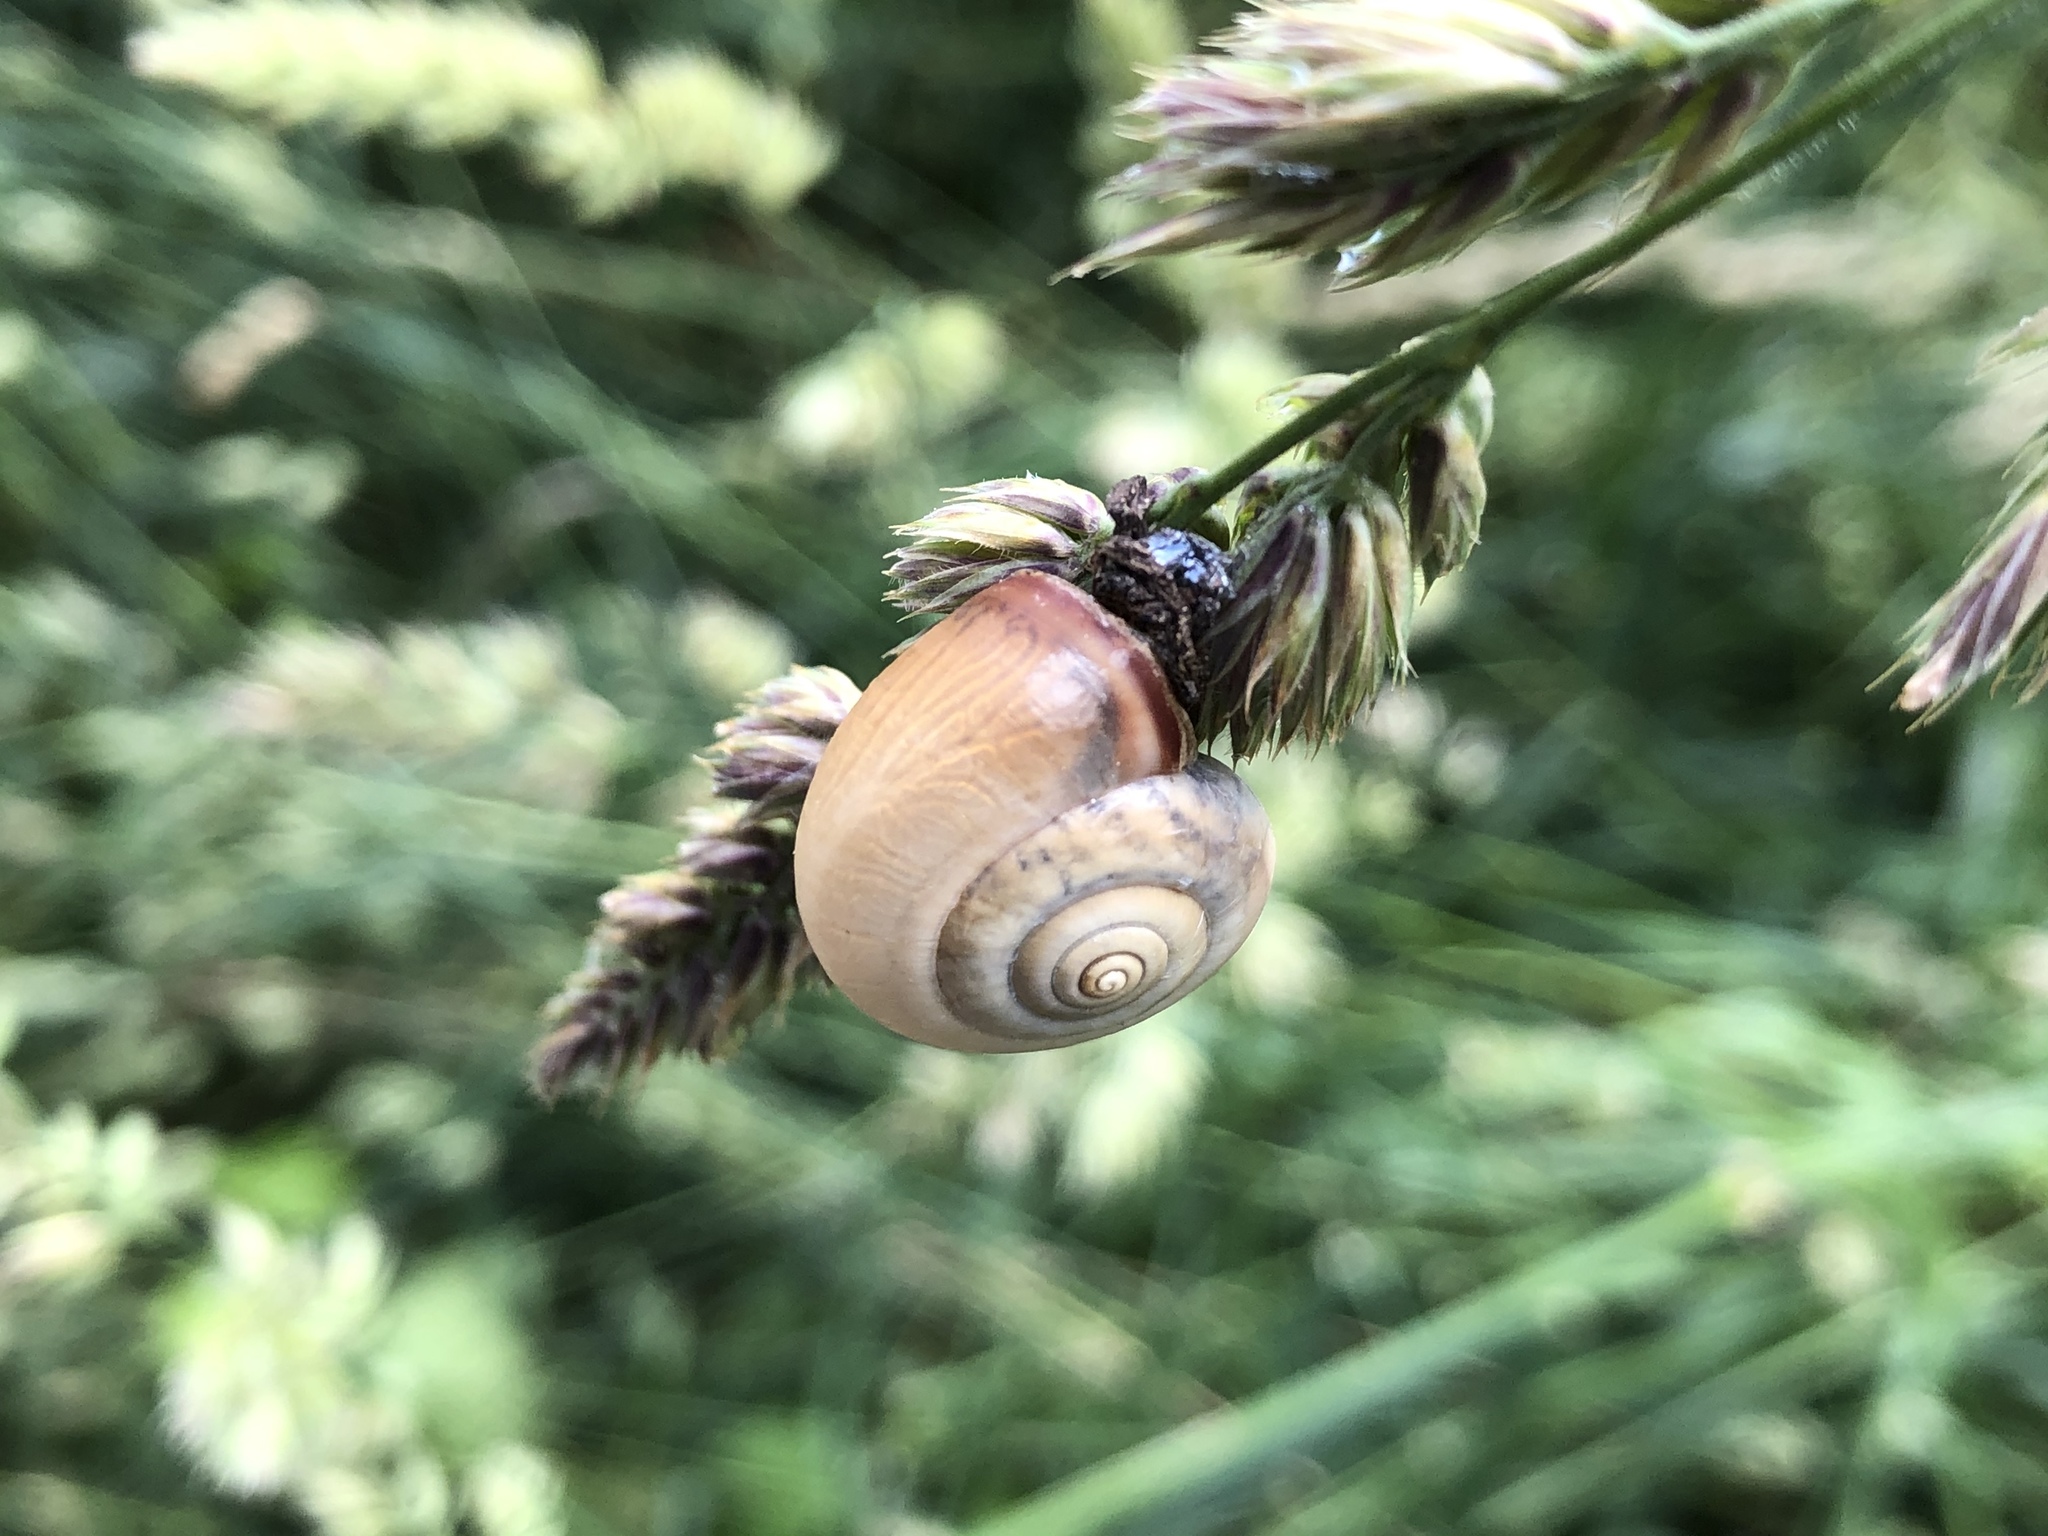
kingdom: Animalia
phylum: Mollusca
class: Gastropoda
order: Stylommatophora
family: Hygromiidae
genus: Monacha
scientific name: Monacha cartusiana
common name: Carthusian snail
